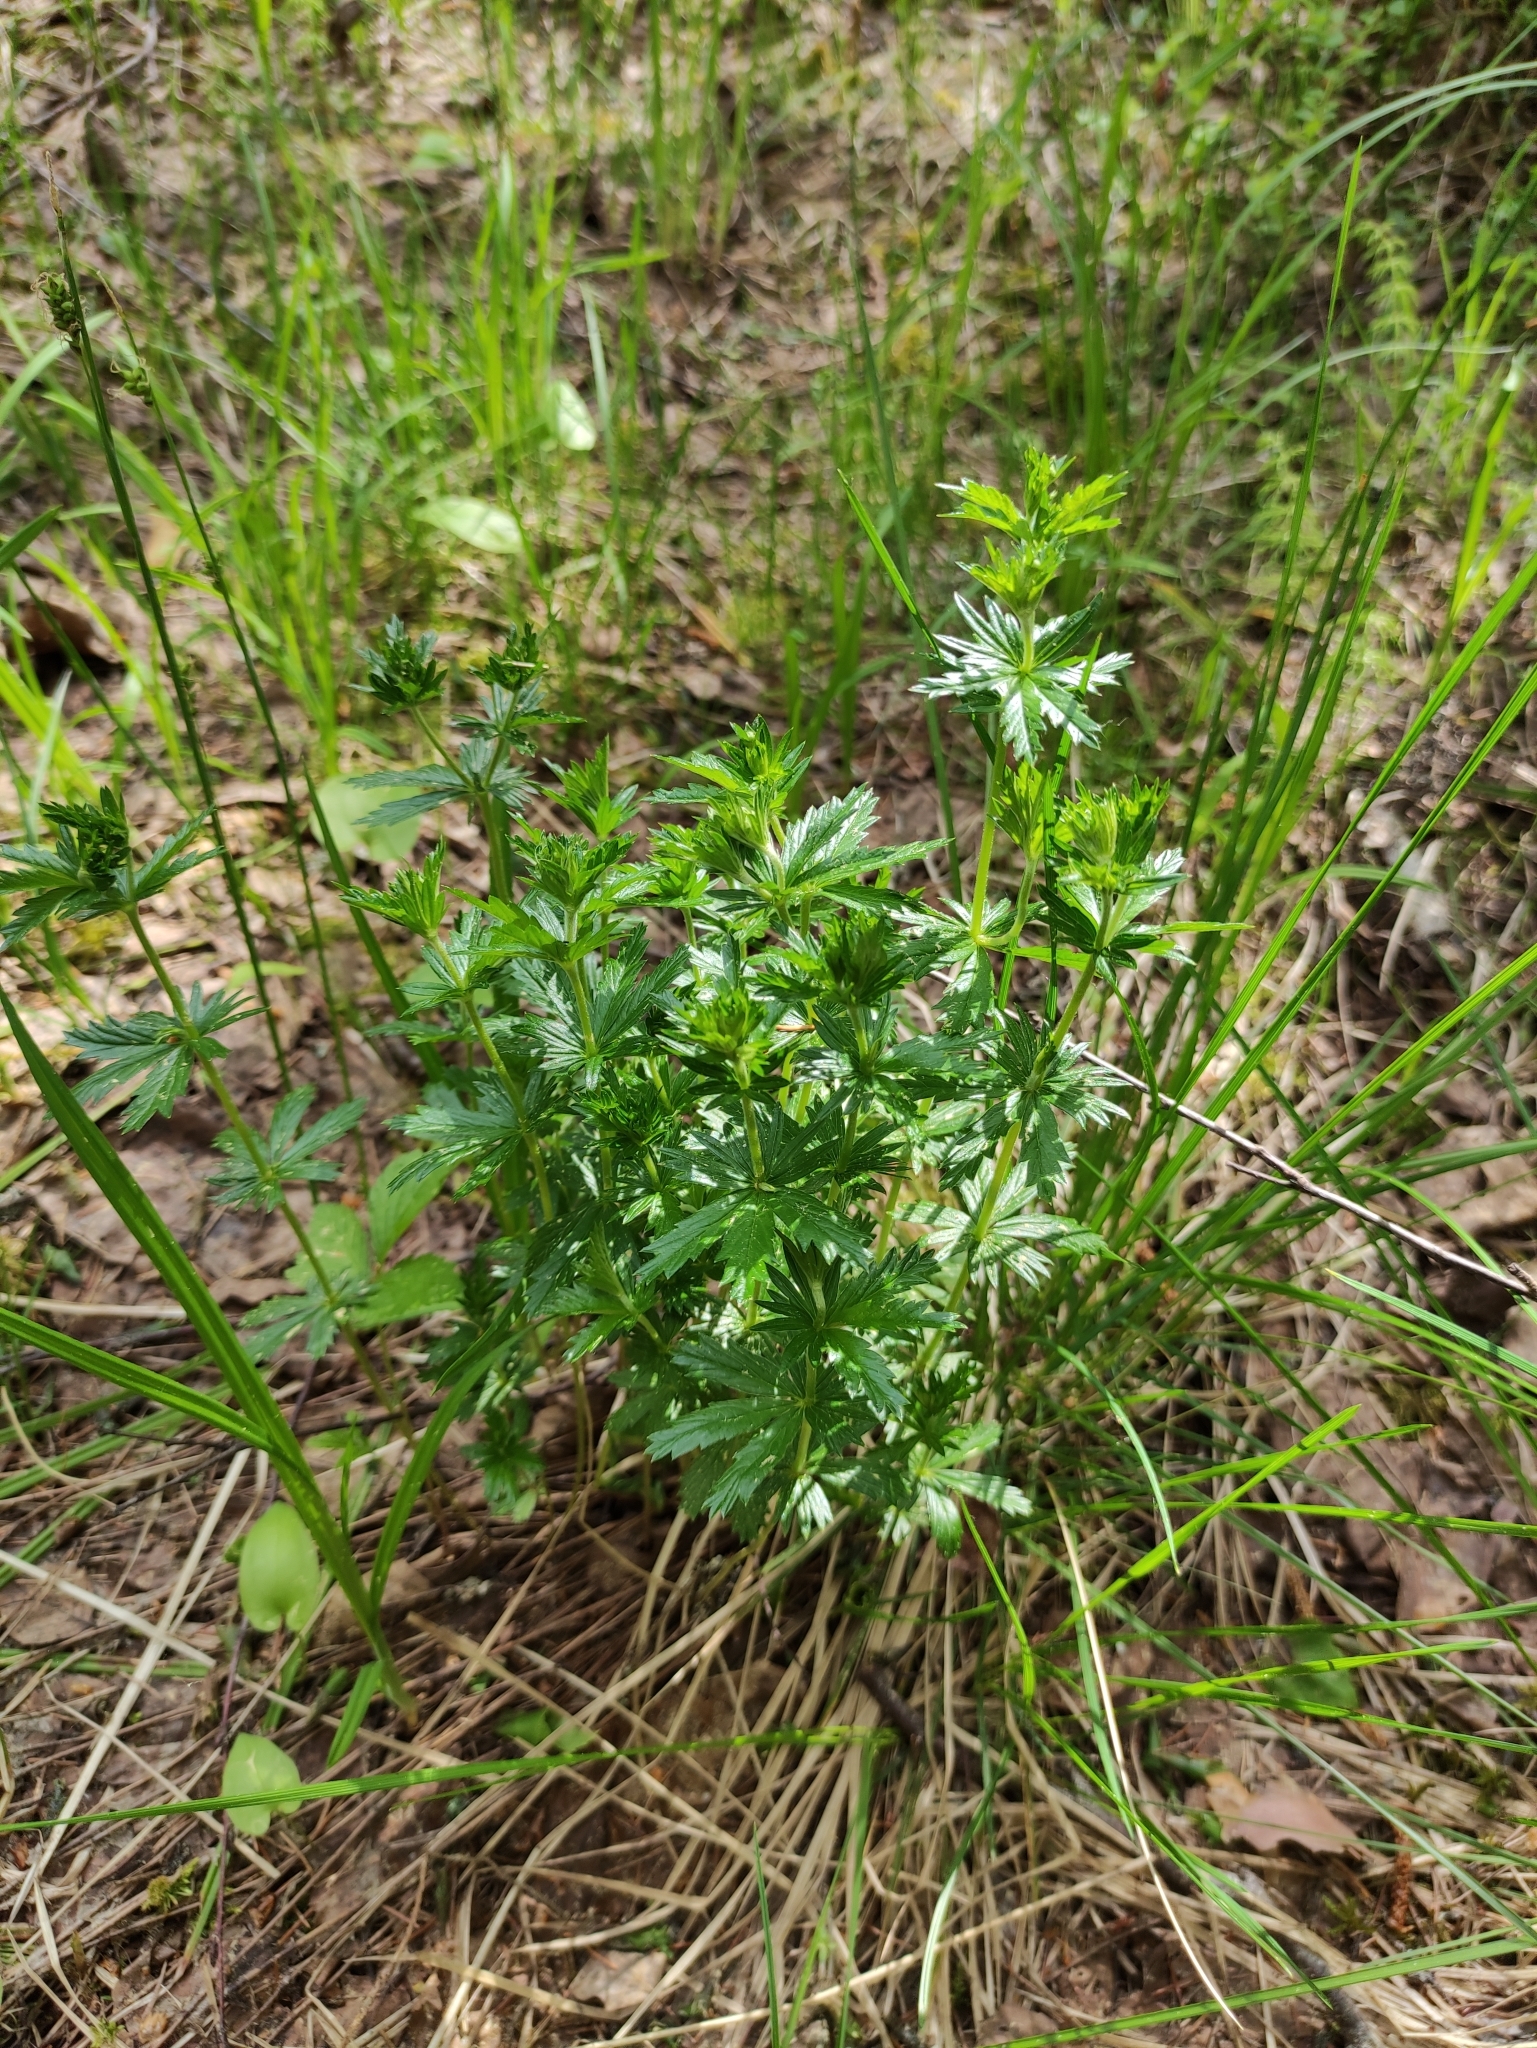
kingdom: Plantae
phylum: Tracheophyta
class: Magnoliopsida
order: Rosales
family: Rosaceae
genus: Potentilla
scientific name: Potentilla erecta
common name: Tormentil
